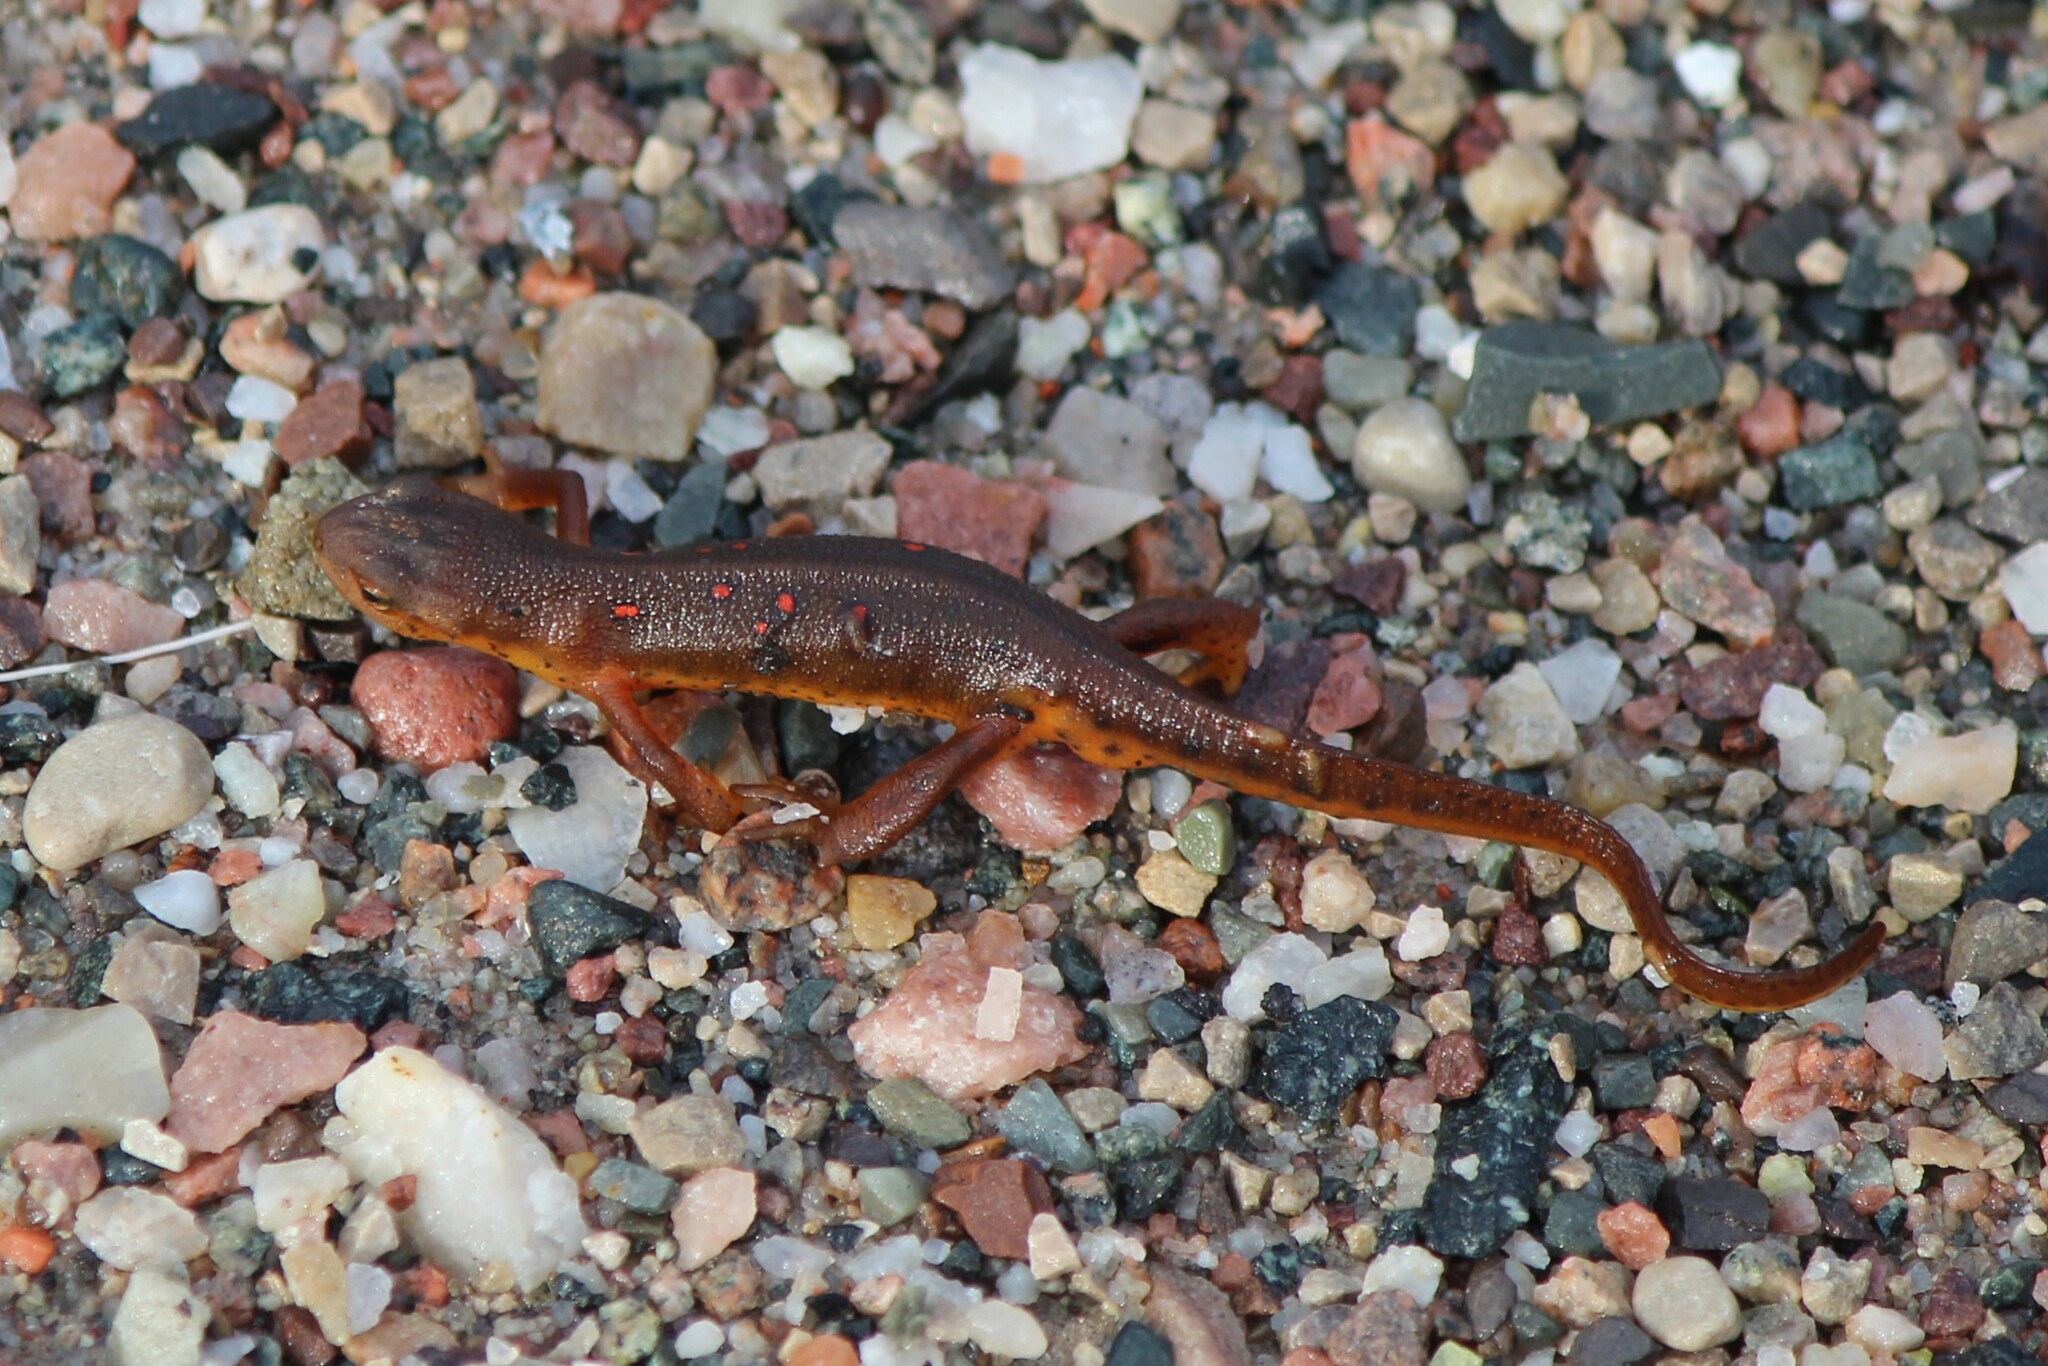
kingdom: Animalia
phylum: Chordata
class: Amphibia
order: Caudata
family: Salamandridae
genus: Notophthalmus
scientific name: Notophthalmus viridescens
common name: Eastern newt
